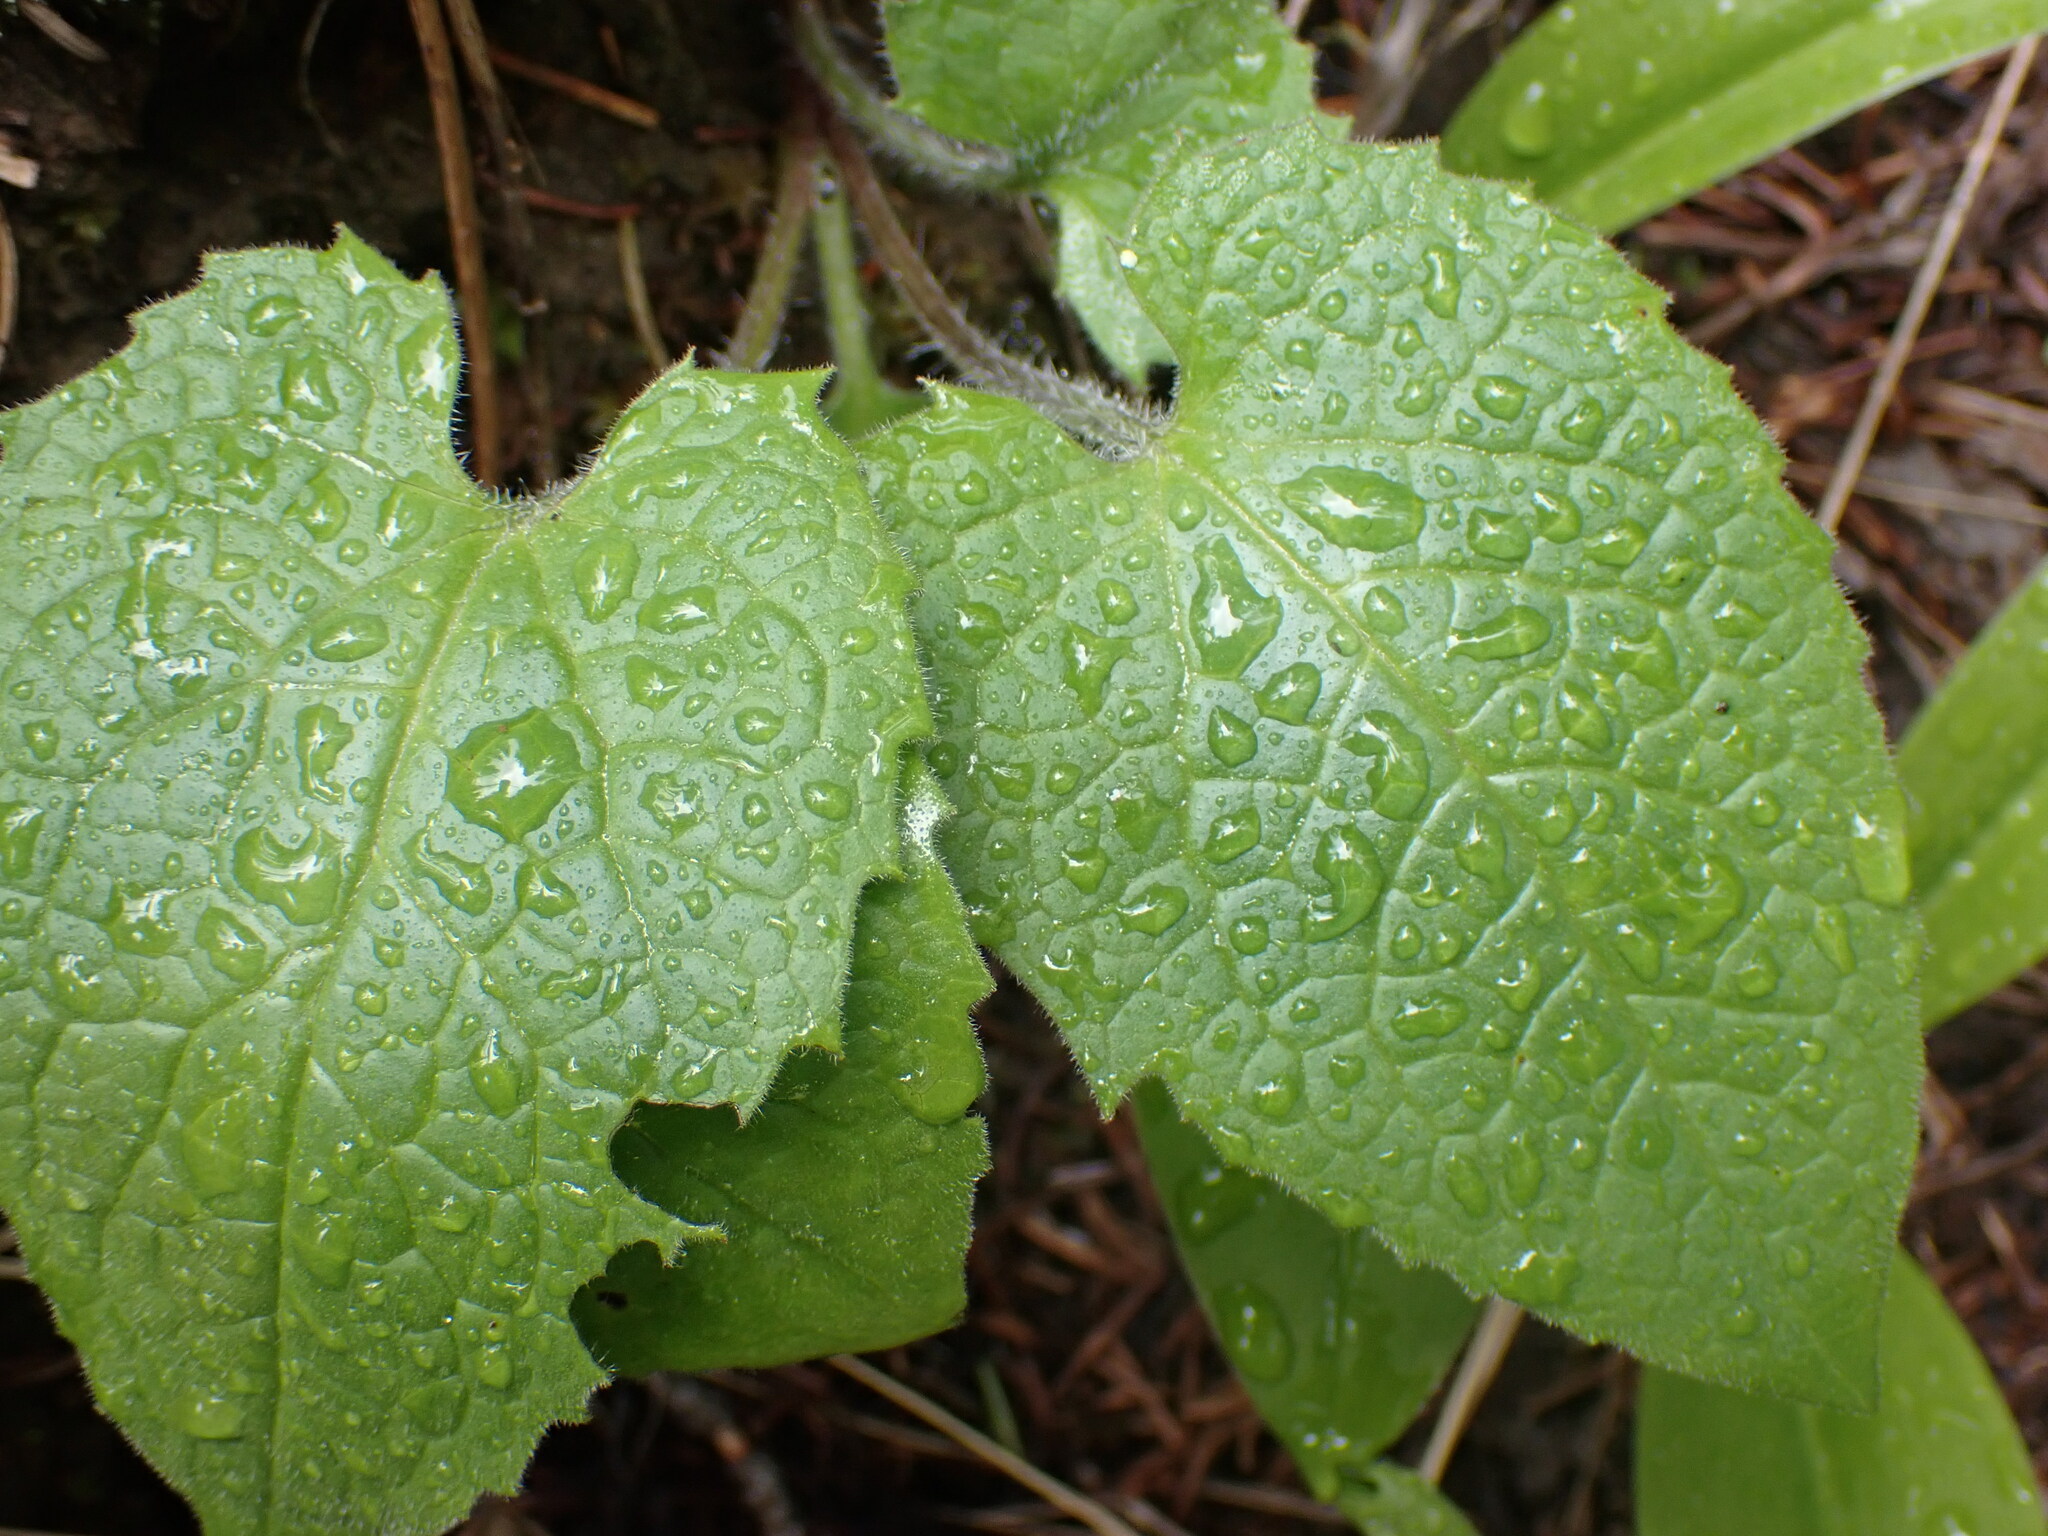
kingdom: Plantae
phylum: Tracheophyta
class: Magnoliopsida
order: Asterales
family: Asteraceae
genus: Arnica
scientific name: Arnica cordifolia
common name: Heart-leaf arnica
